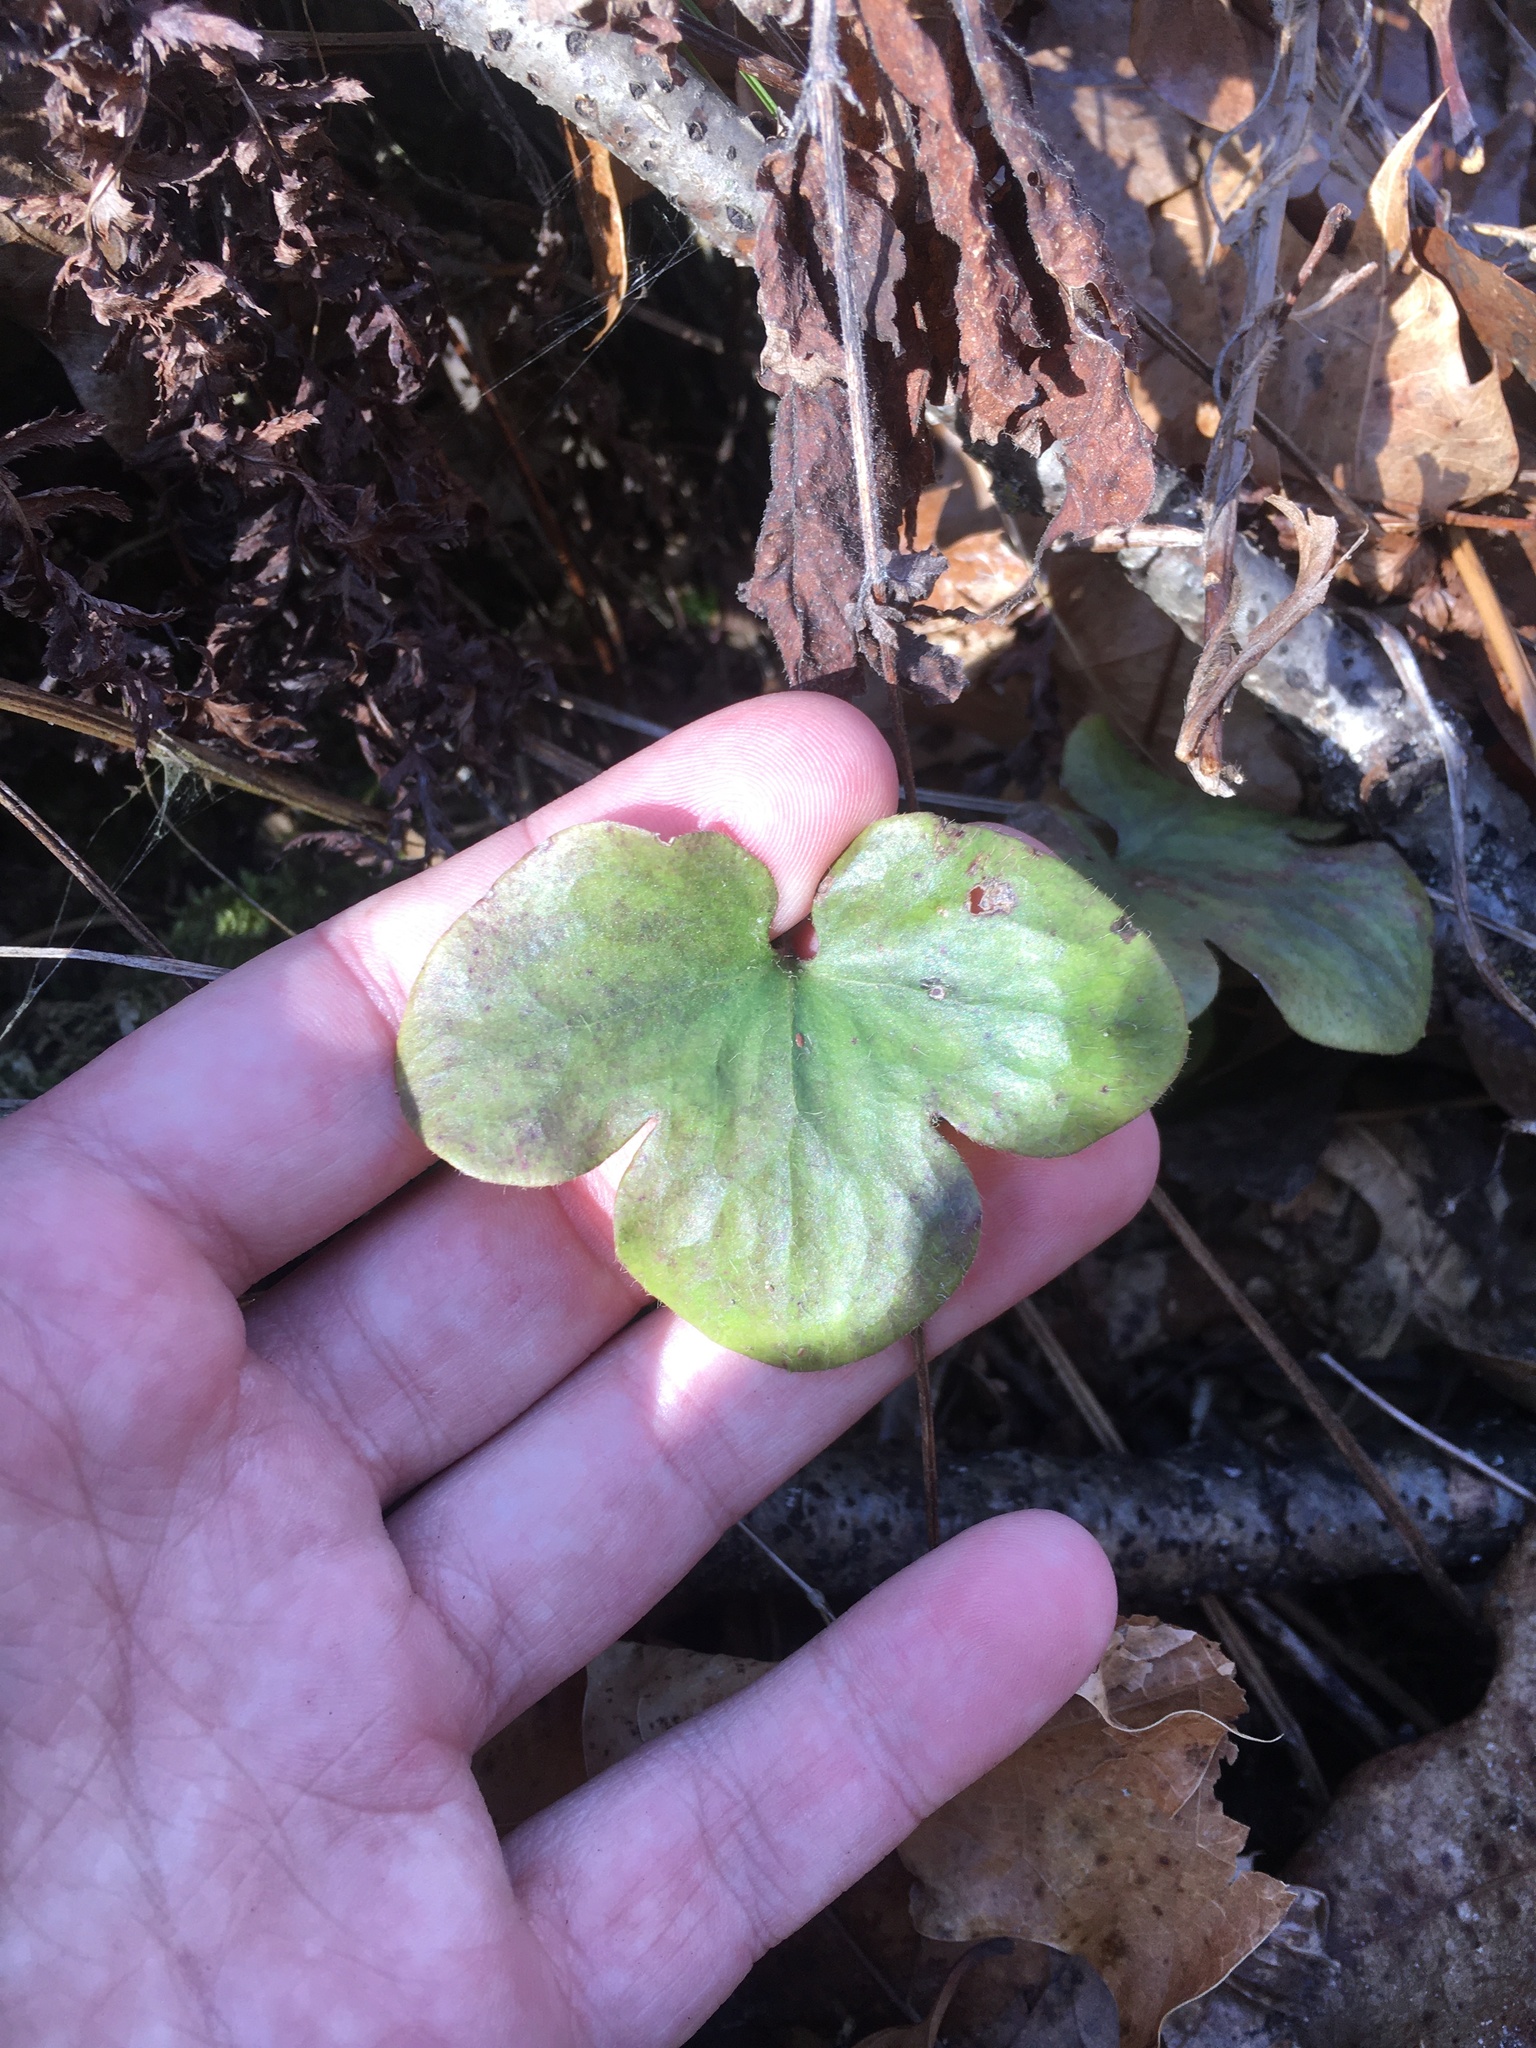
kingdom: Plantae
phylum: Tracheophyta
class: Magnoliopsida
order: Ranunculales
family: Ranunculaceae
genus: Hepatica
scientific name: Hepatica americana
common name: American hepatica
